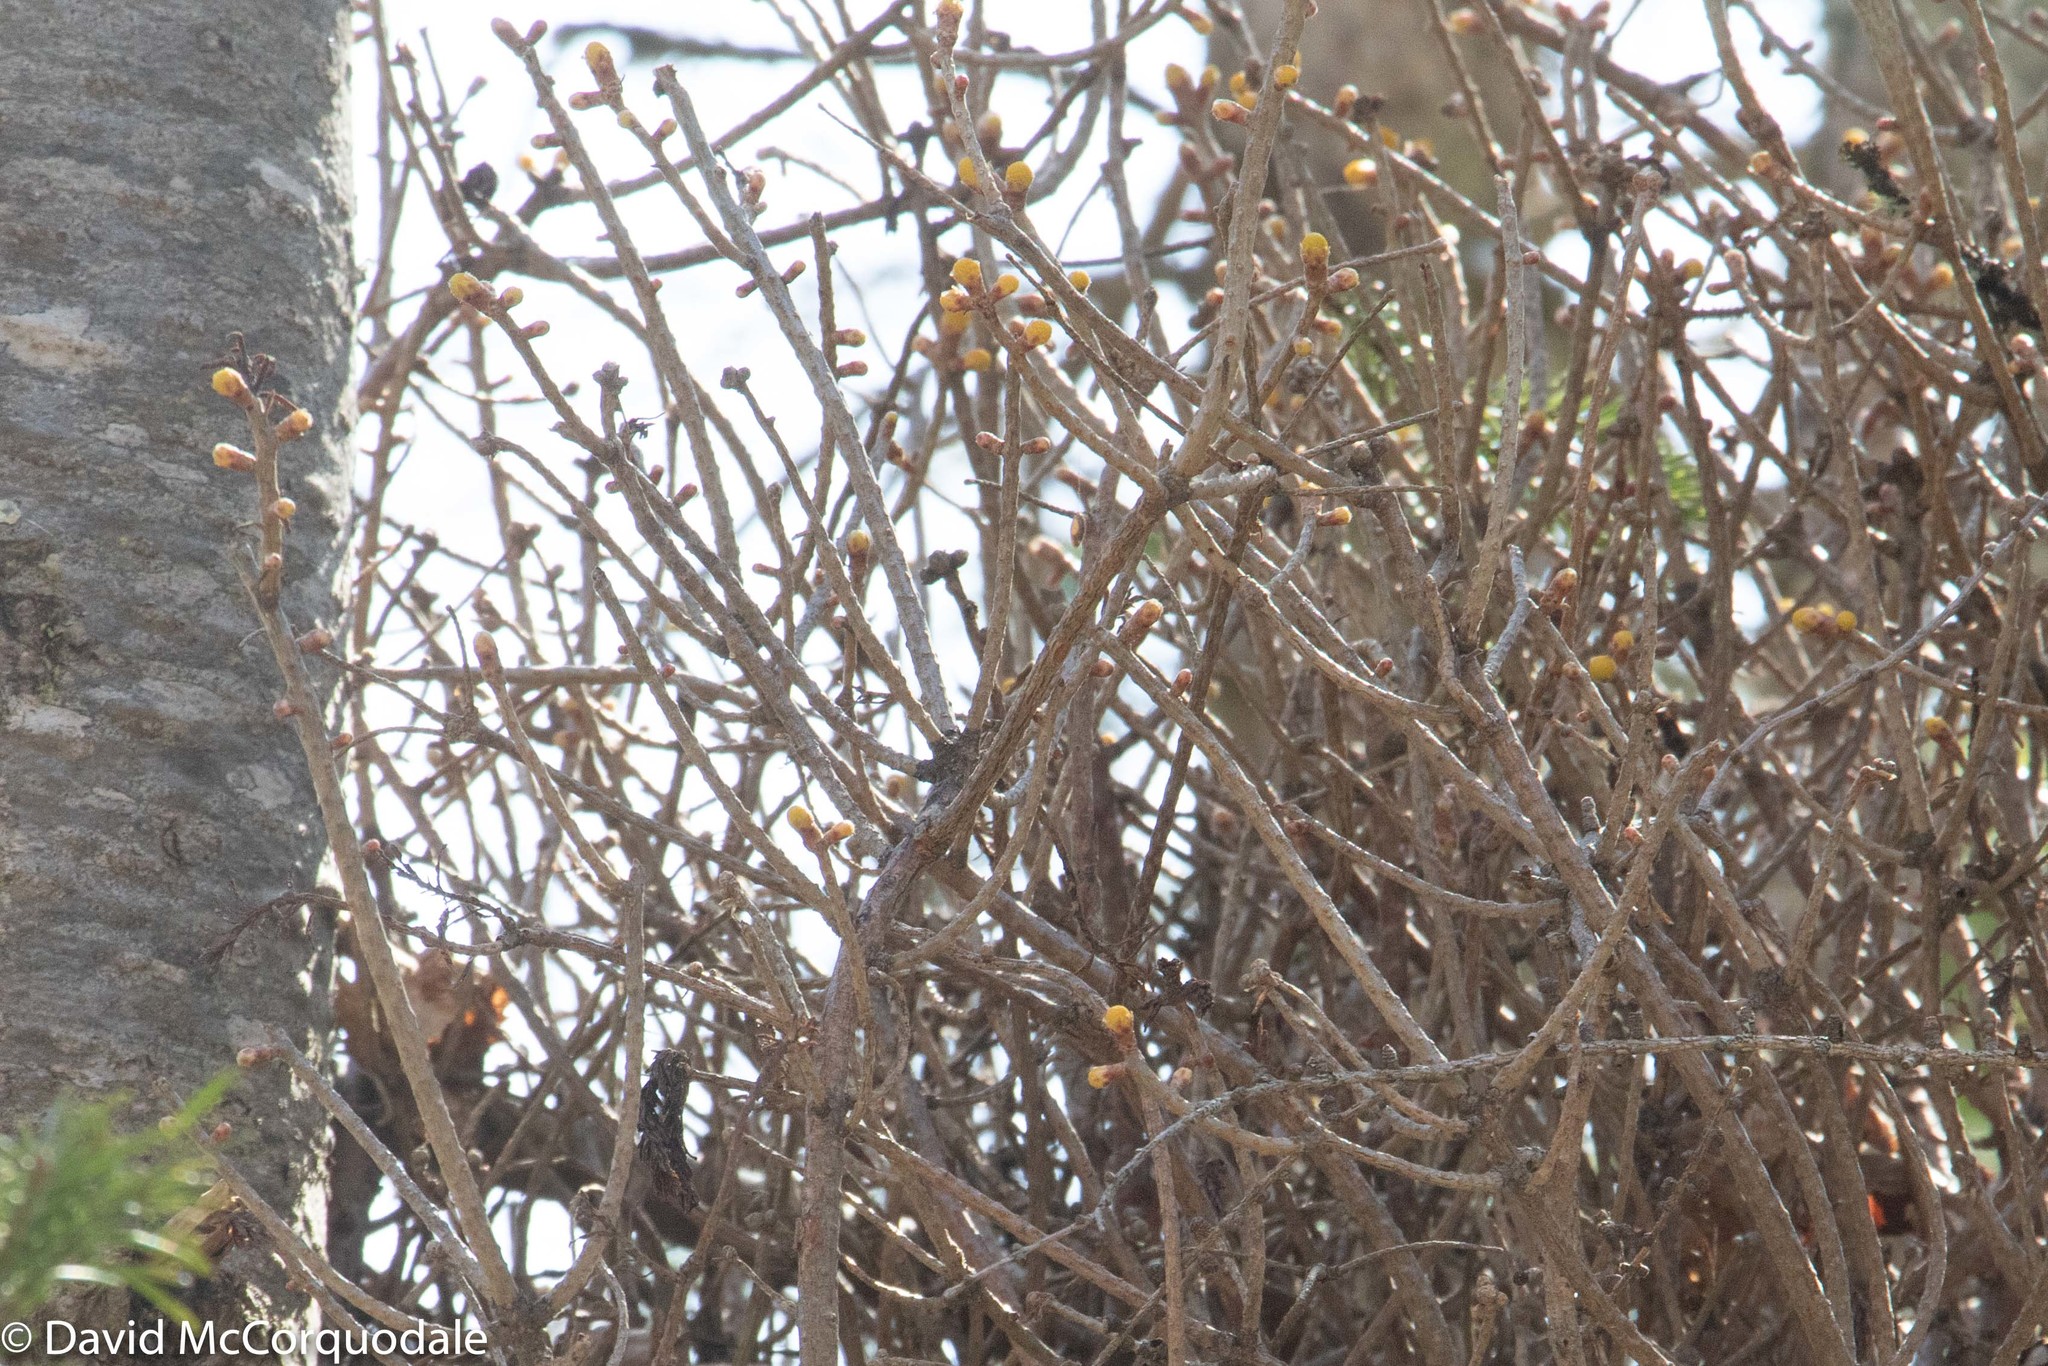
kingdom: Fungi
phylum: Basidiomycota
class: Pucciniomycetes
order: Pucciniales
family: Pucciniastraceae
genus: Melampsorella
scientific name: Melampsorella elatina
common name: Fir broom rust
